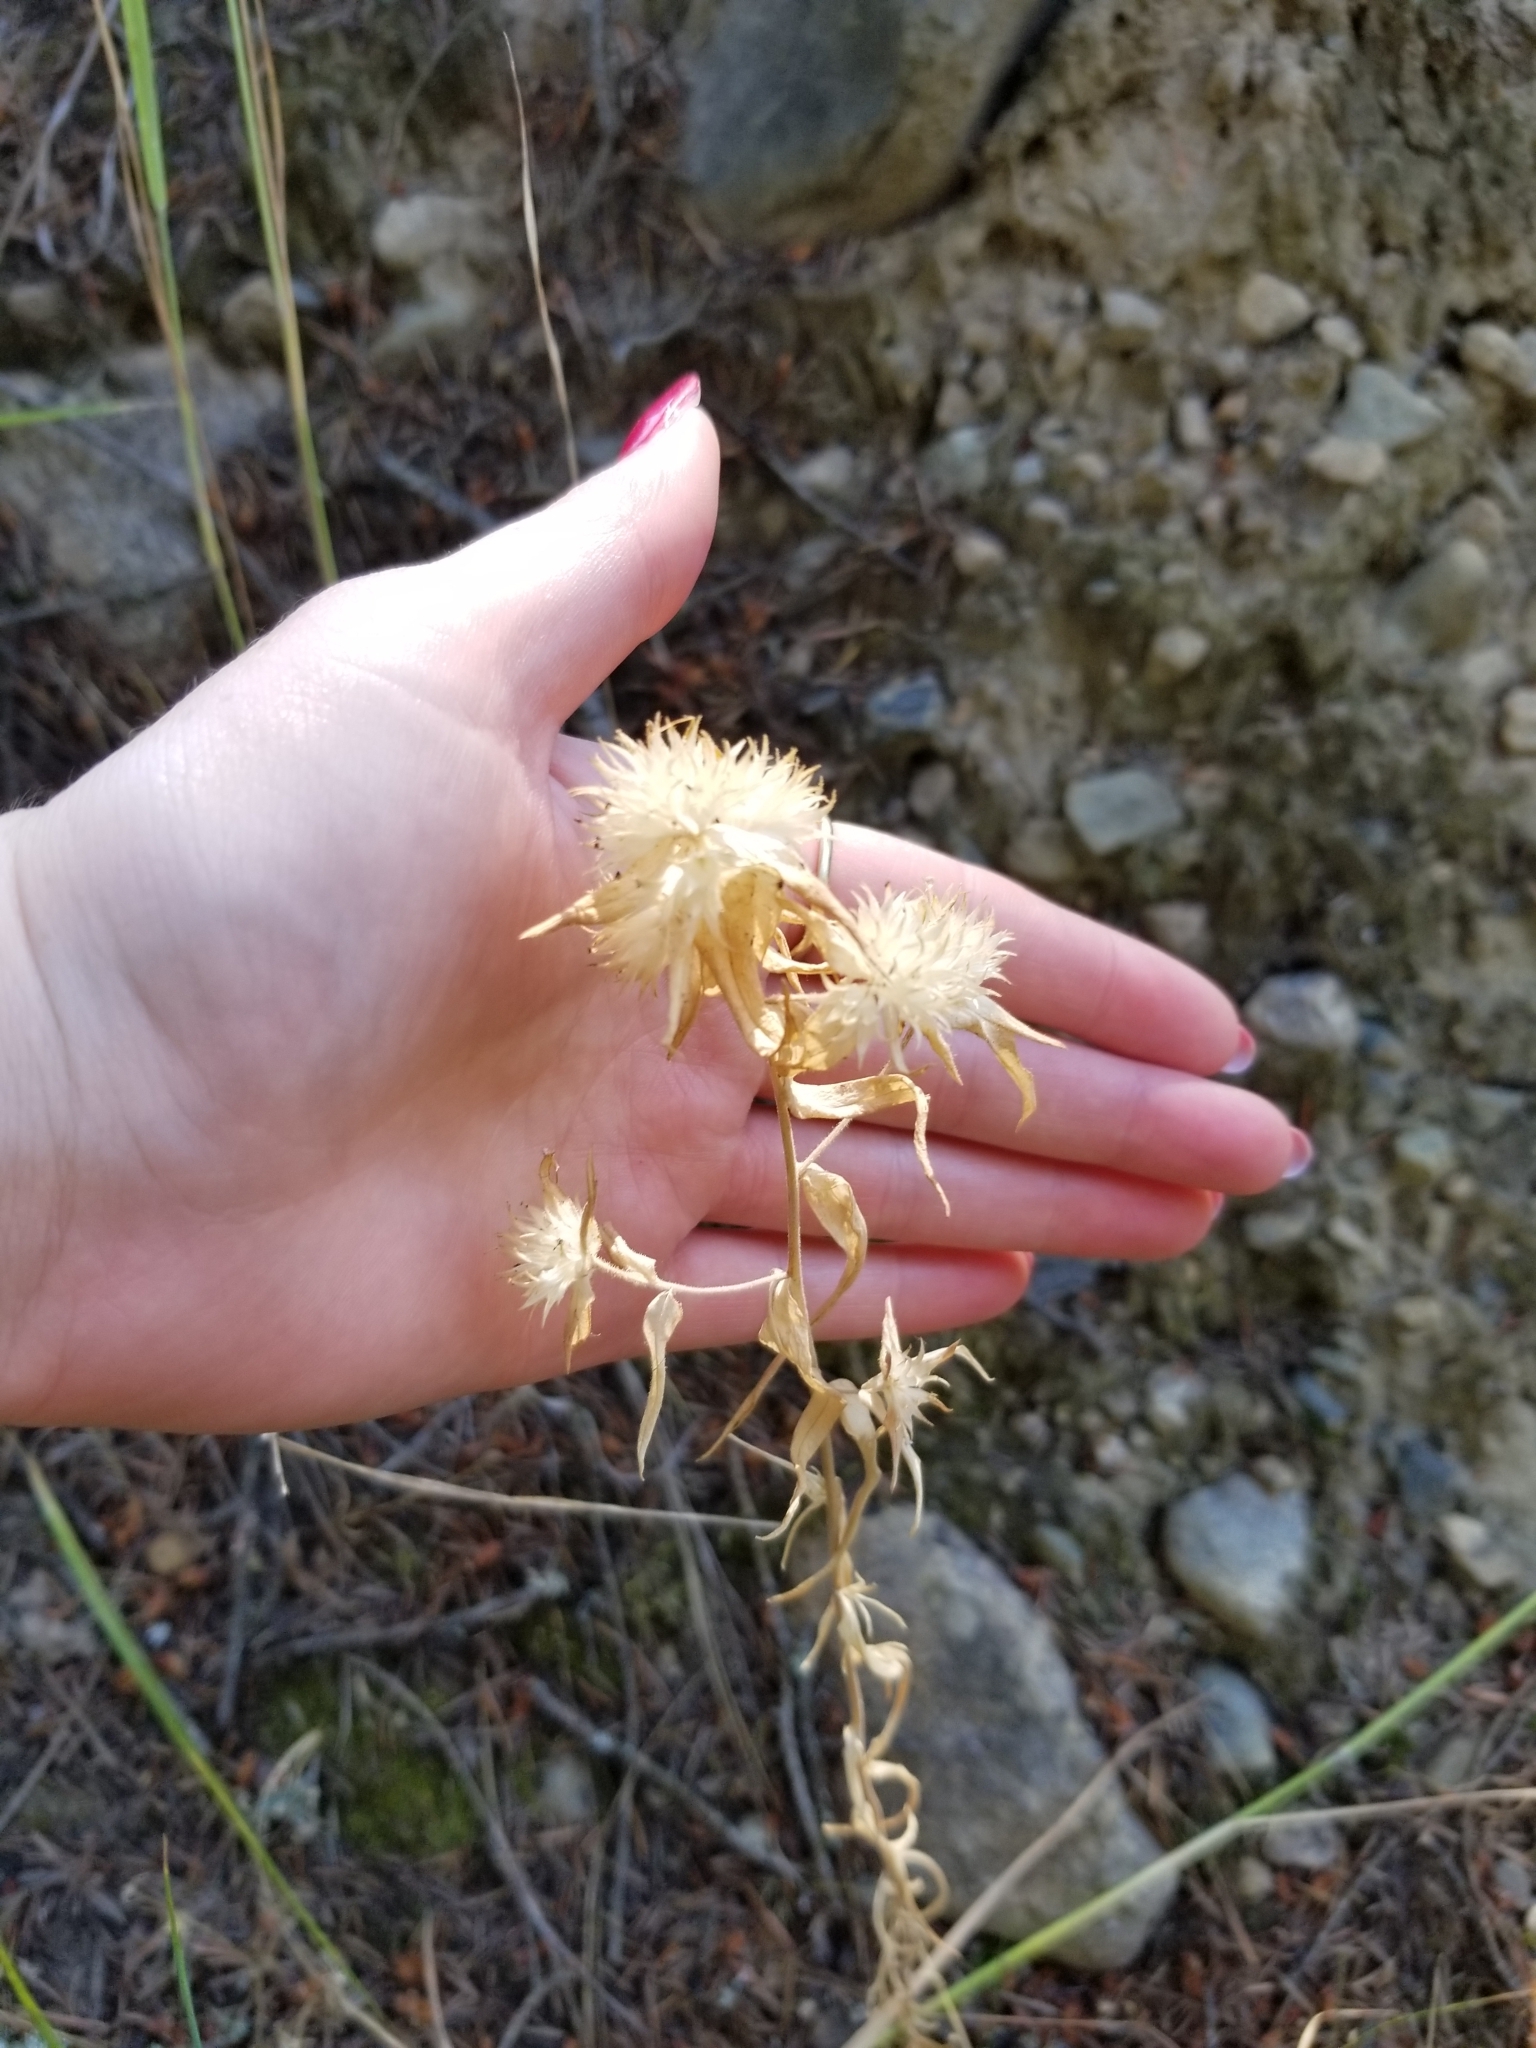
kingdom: Plantae
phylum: Tracheophyta
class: Magnoliopsida
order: Ericales
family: Polemoniaceae
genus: Collomia
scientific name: Collomia linearis
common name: Tiny trumpet
